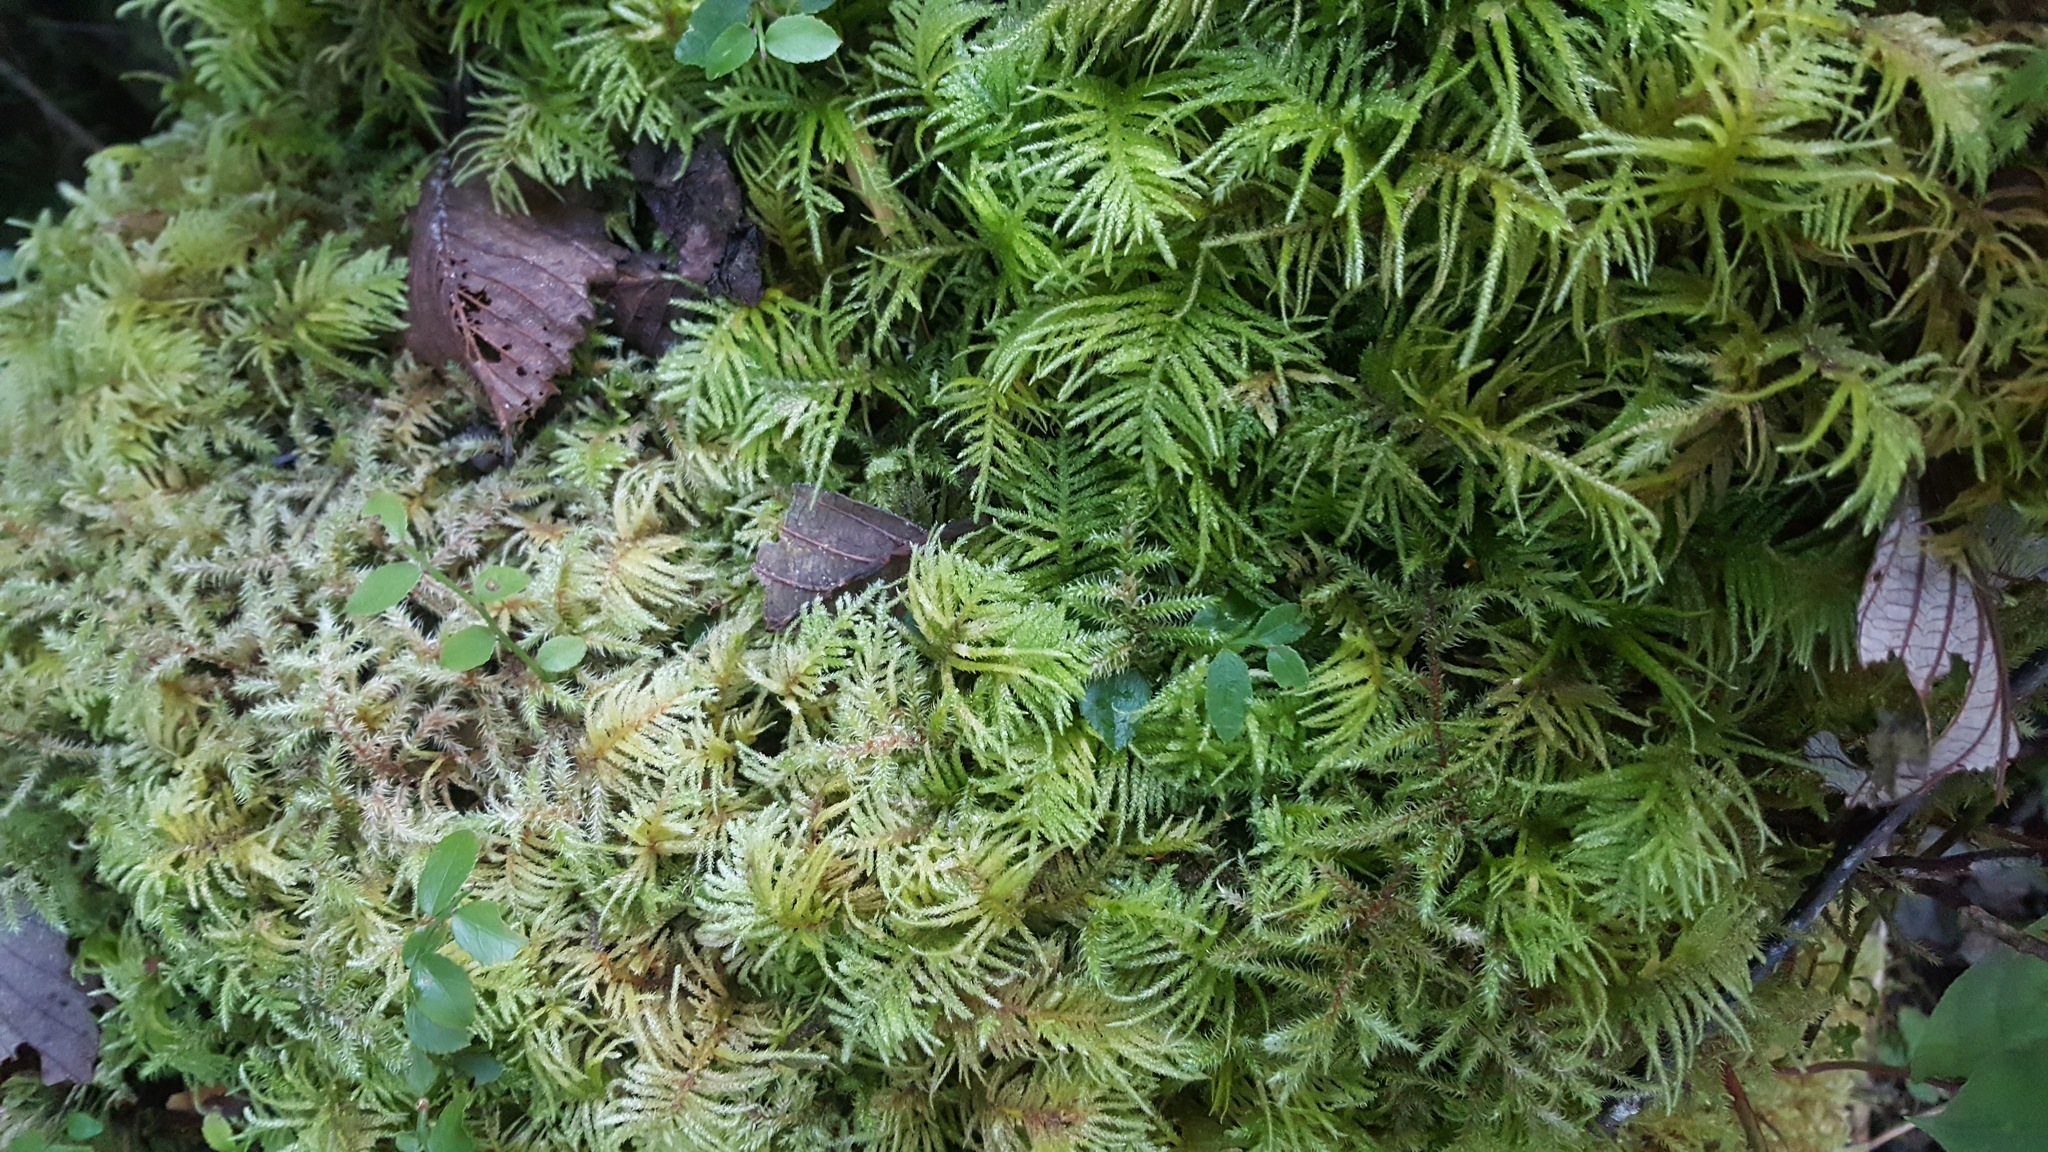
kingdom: Plantae
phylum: Bryophyta
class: Bryopsida
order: Hypnales
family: Brachytheciaceae
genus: Kindbergia
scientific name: Kindbergia oregana
